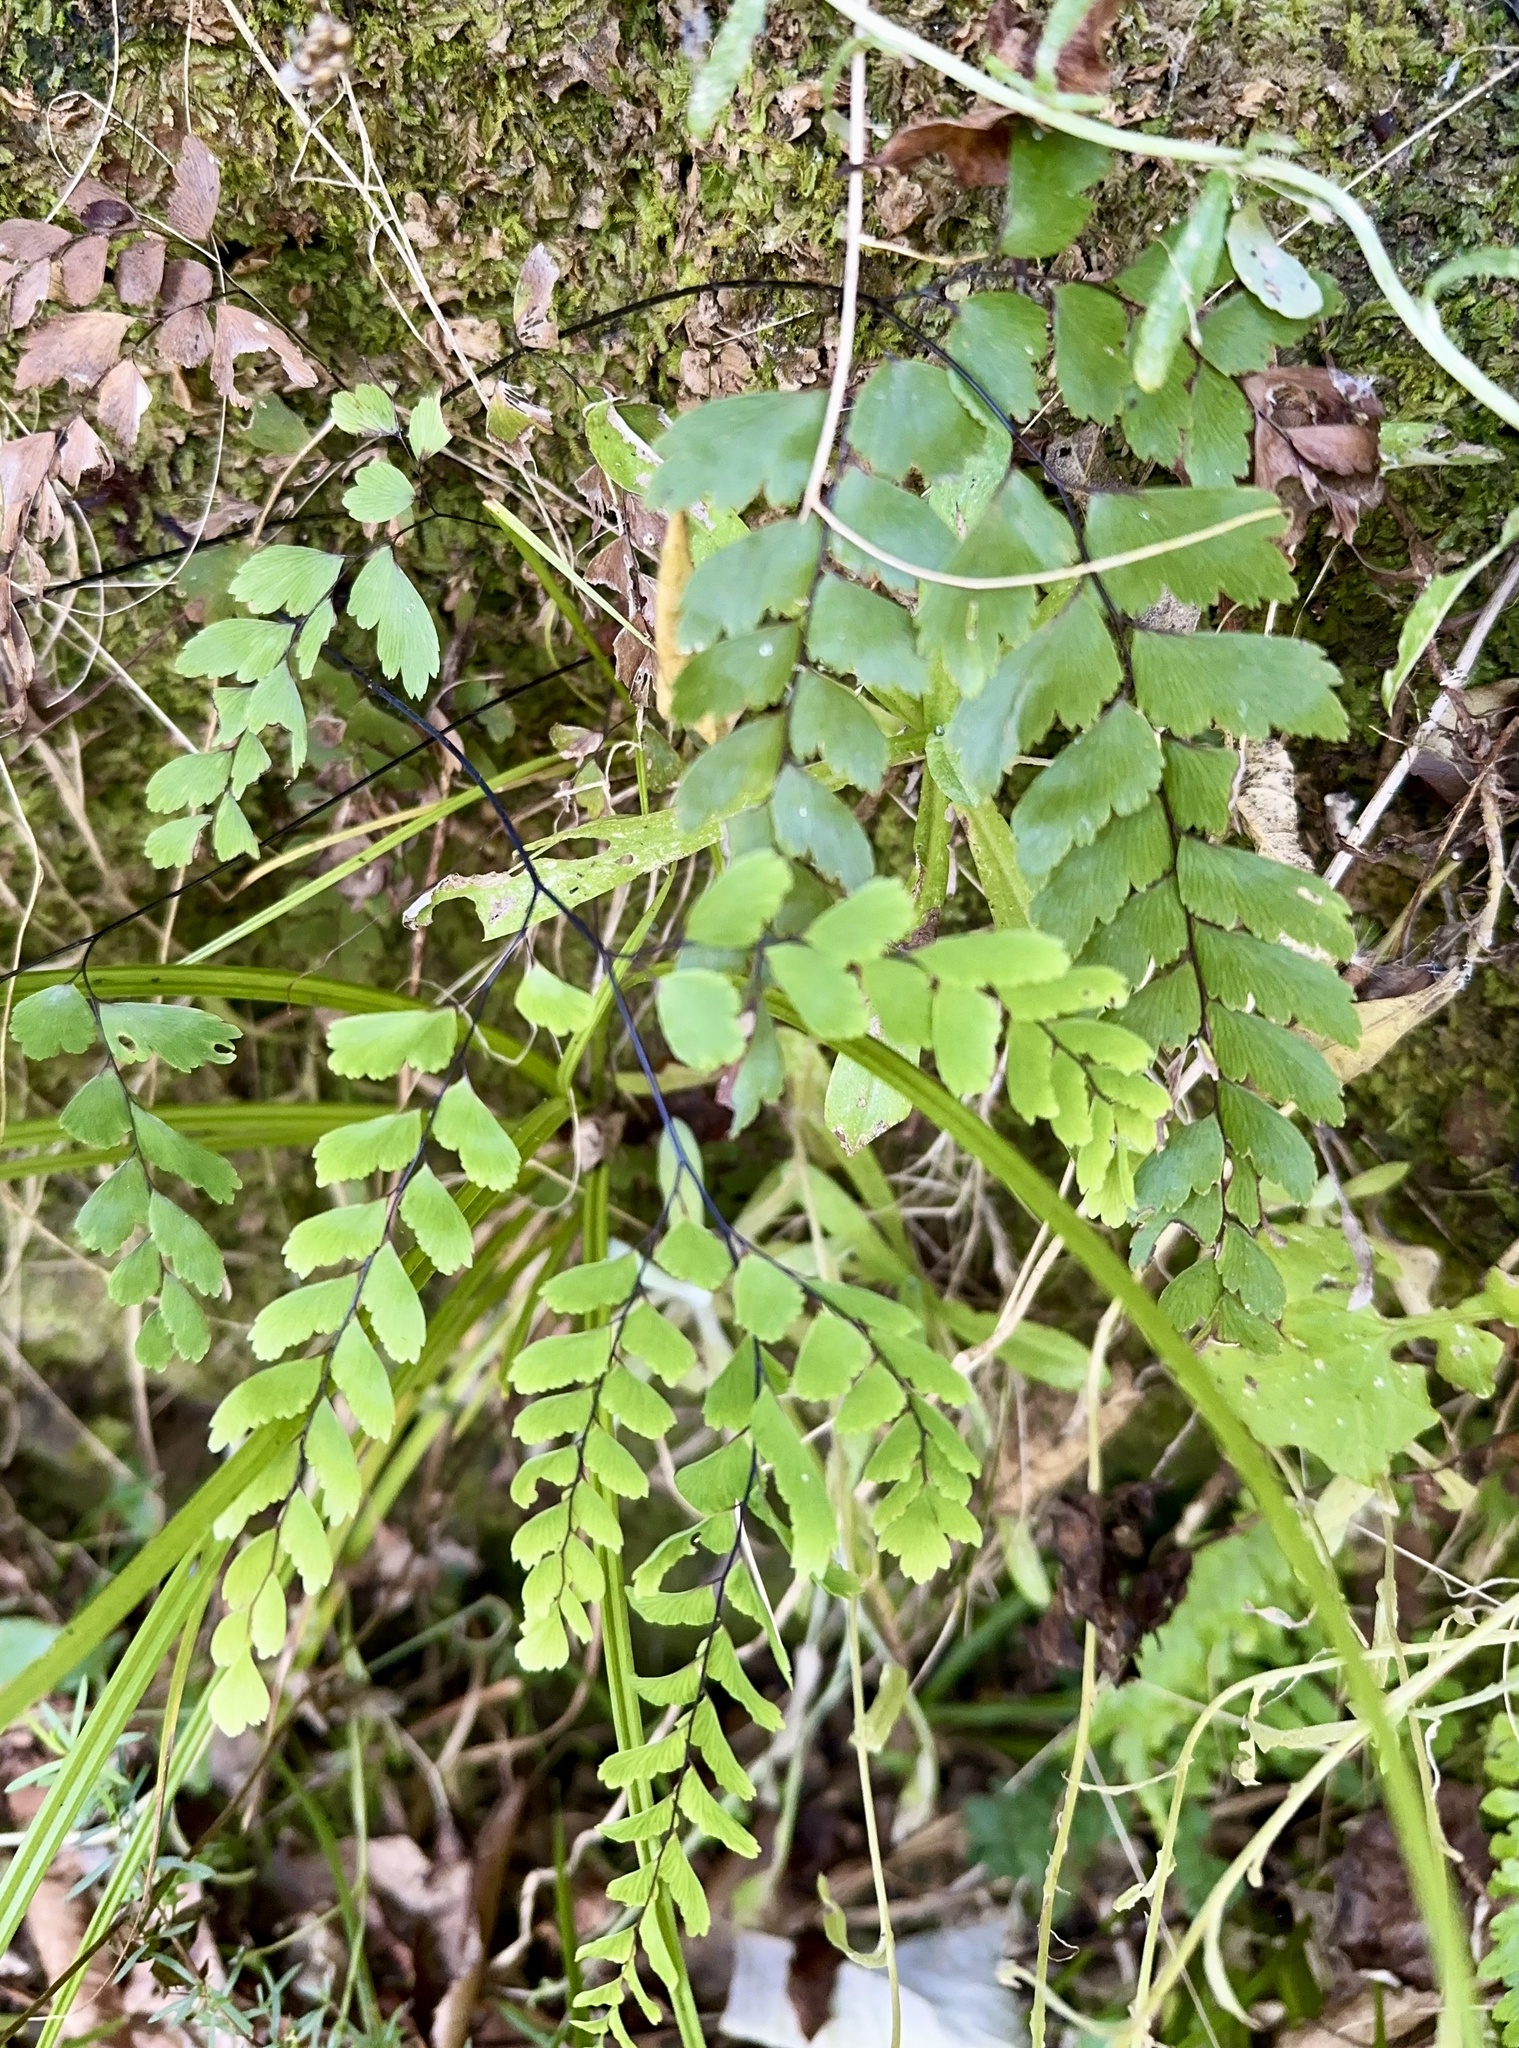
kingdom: Plantae
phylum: Tracheophyta
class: Polypodiopsida
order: Polypodiales
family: Pteridaceae
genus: Adiantum
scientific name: Adiantum cunninghamii
